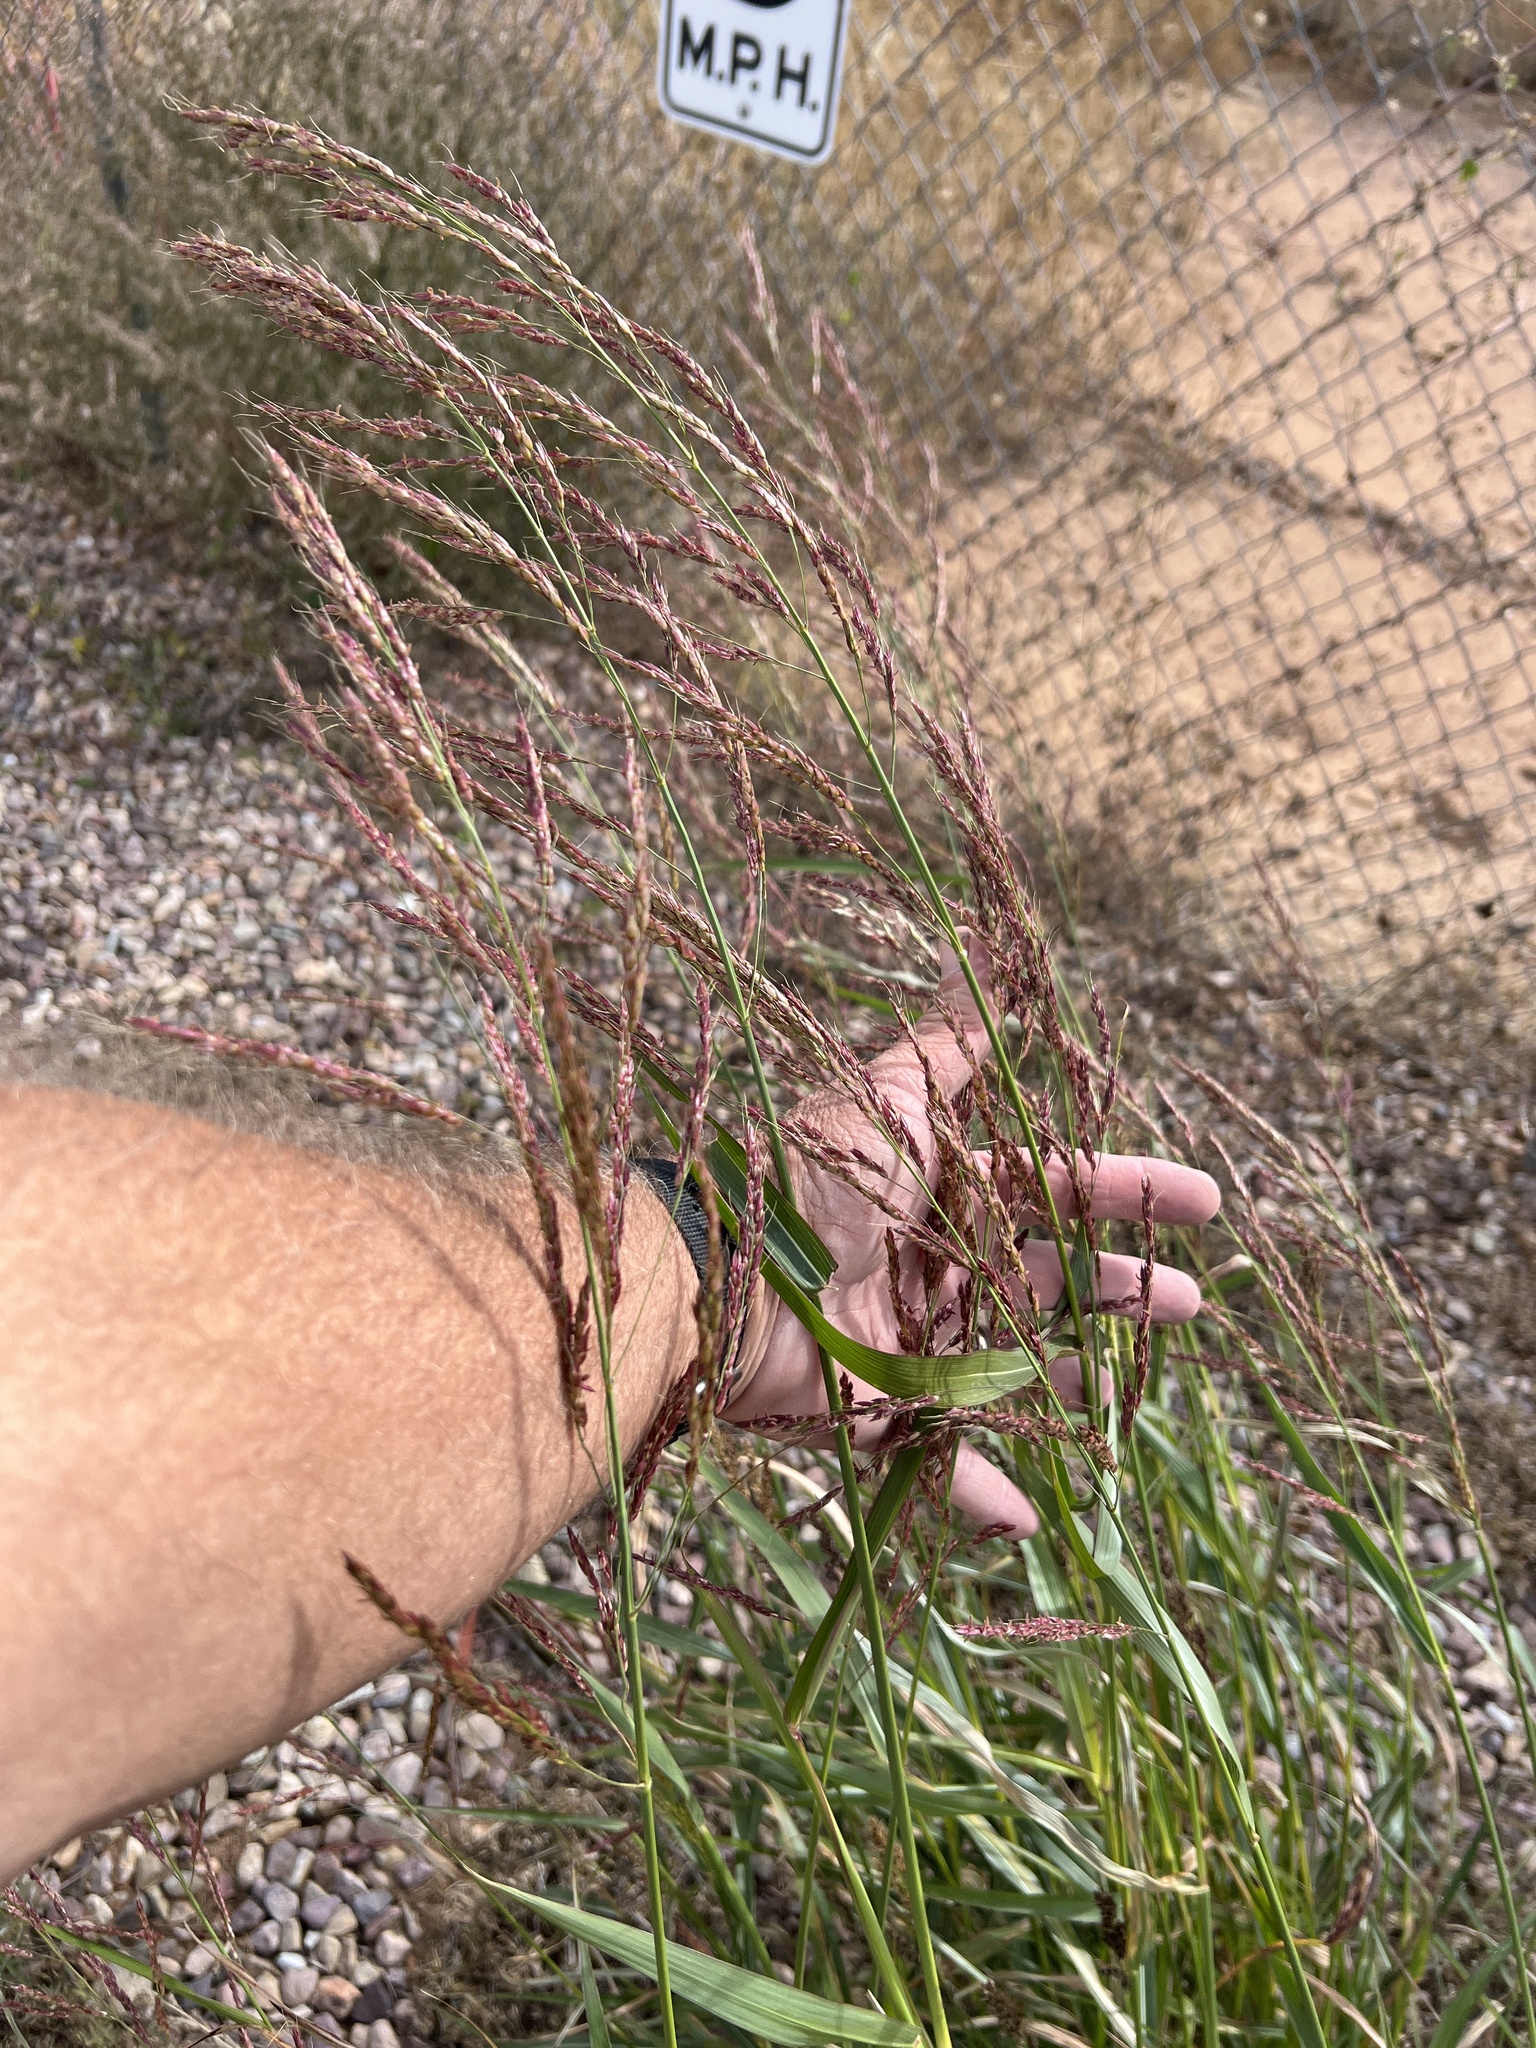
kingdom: Plantae
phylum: Tracheophyta
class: Liliopsida
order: Poales
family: Poaceae
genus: Sorghum
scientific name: Sorghum halepense
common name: Johnson-grass
